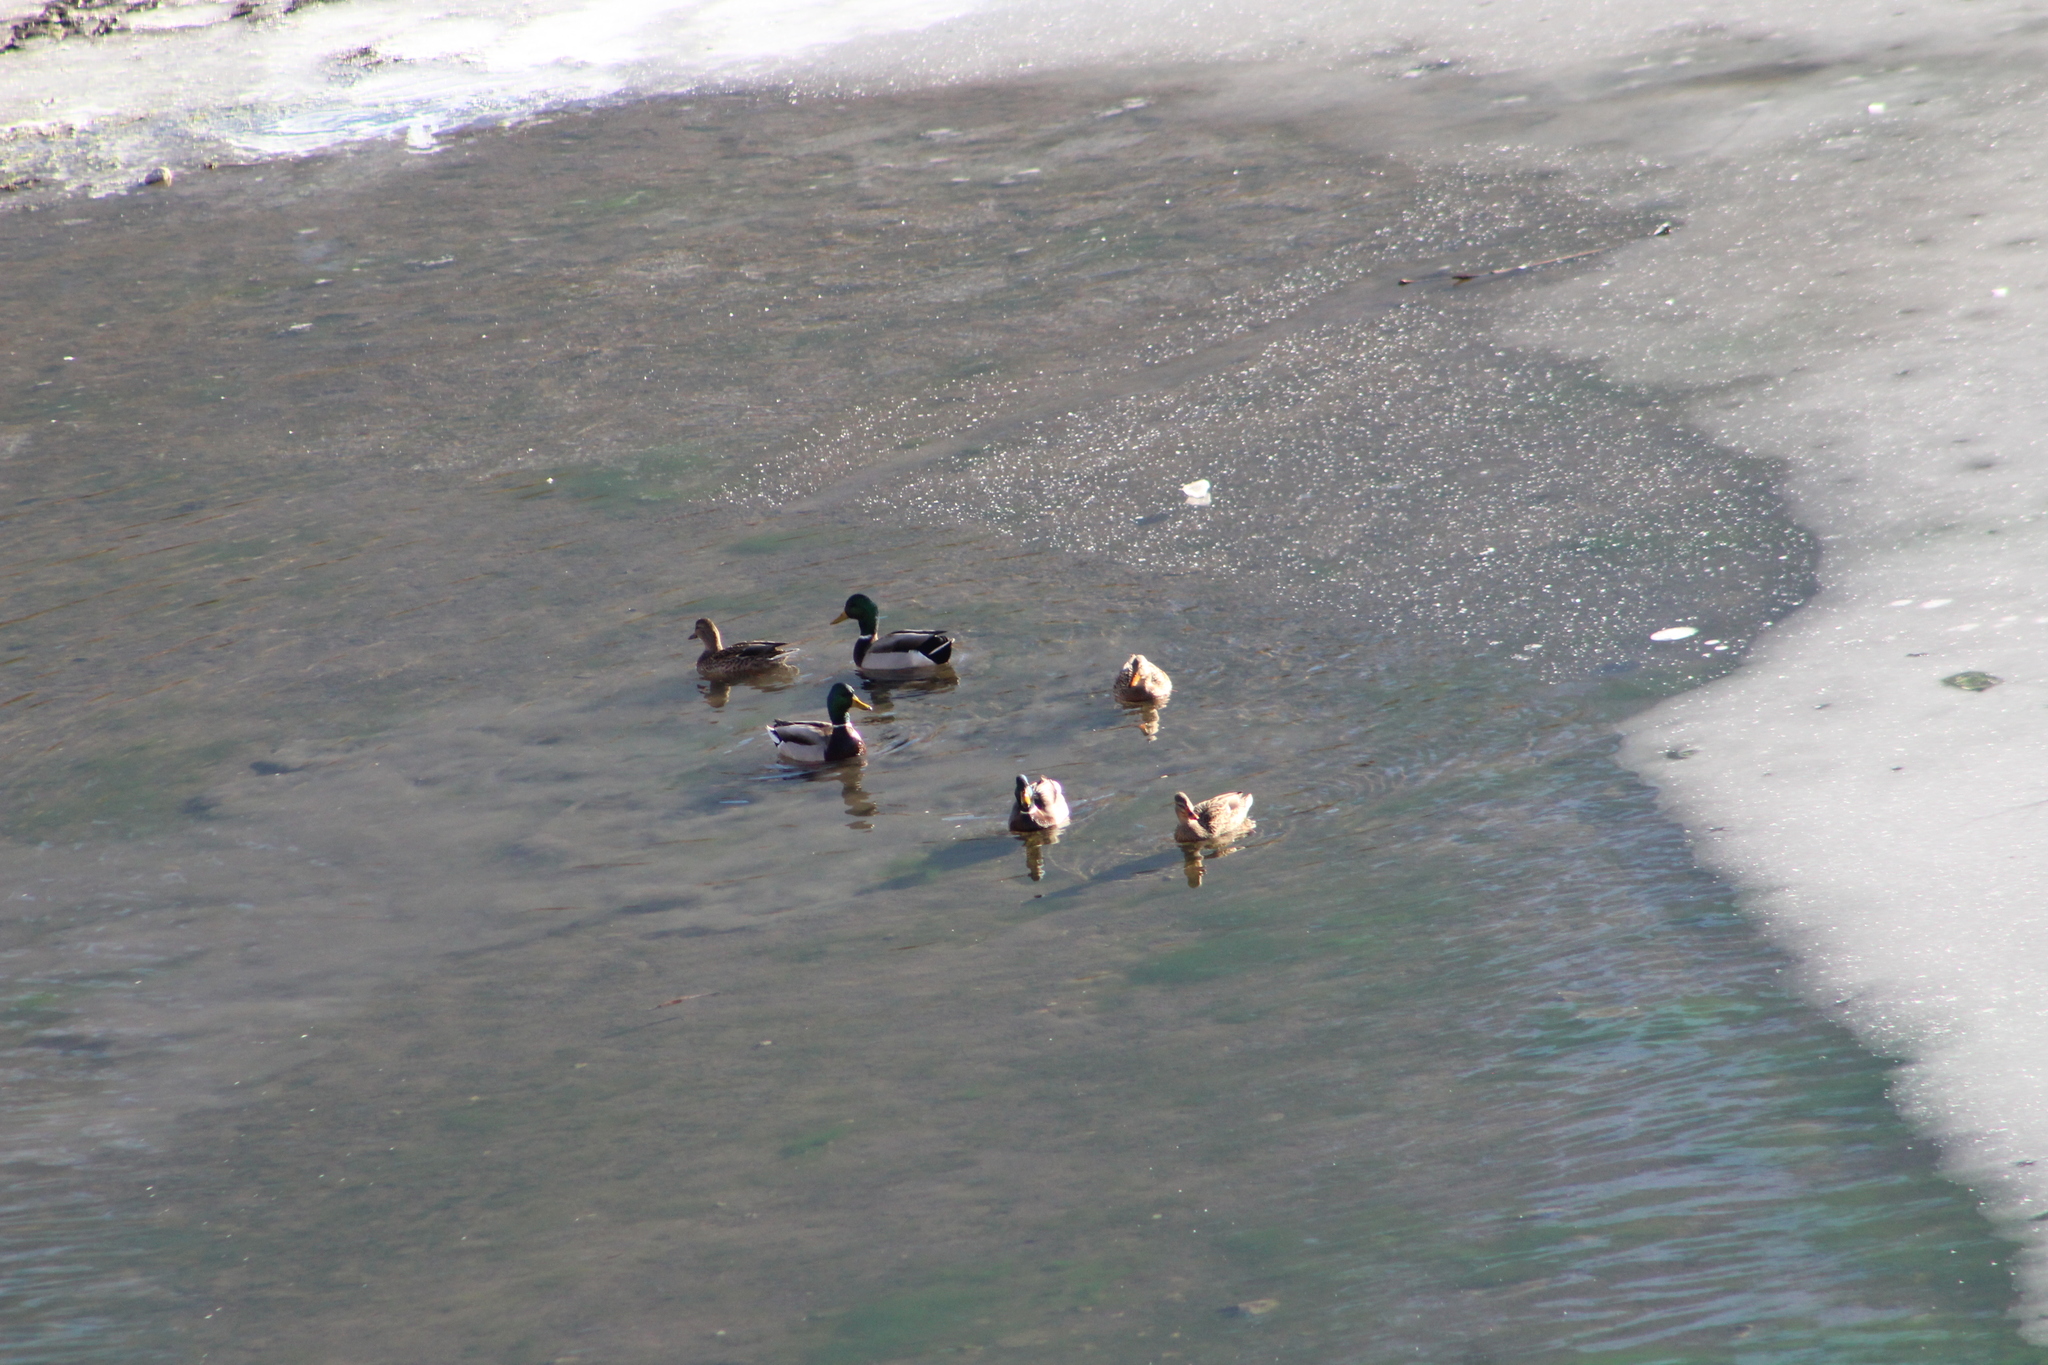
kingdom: Animalia
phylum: Chordata
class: Aves
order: Anseriformes
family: Anatidae
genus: Anas
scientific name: Anas platyrhynchos
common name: Mallard
